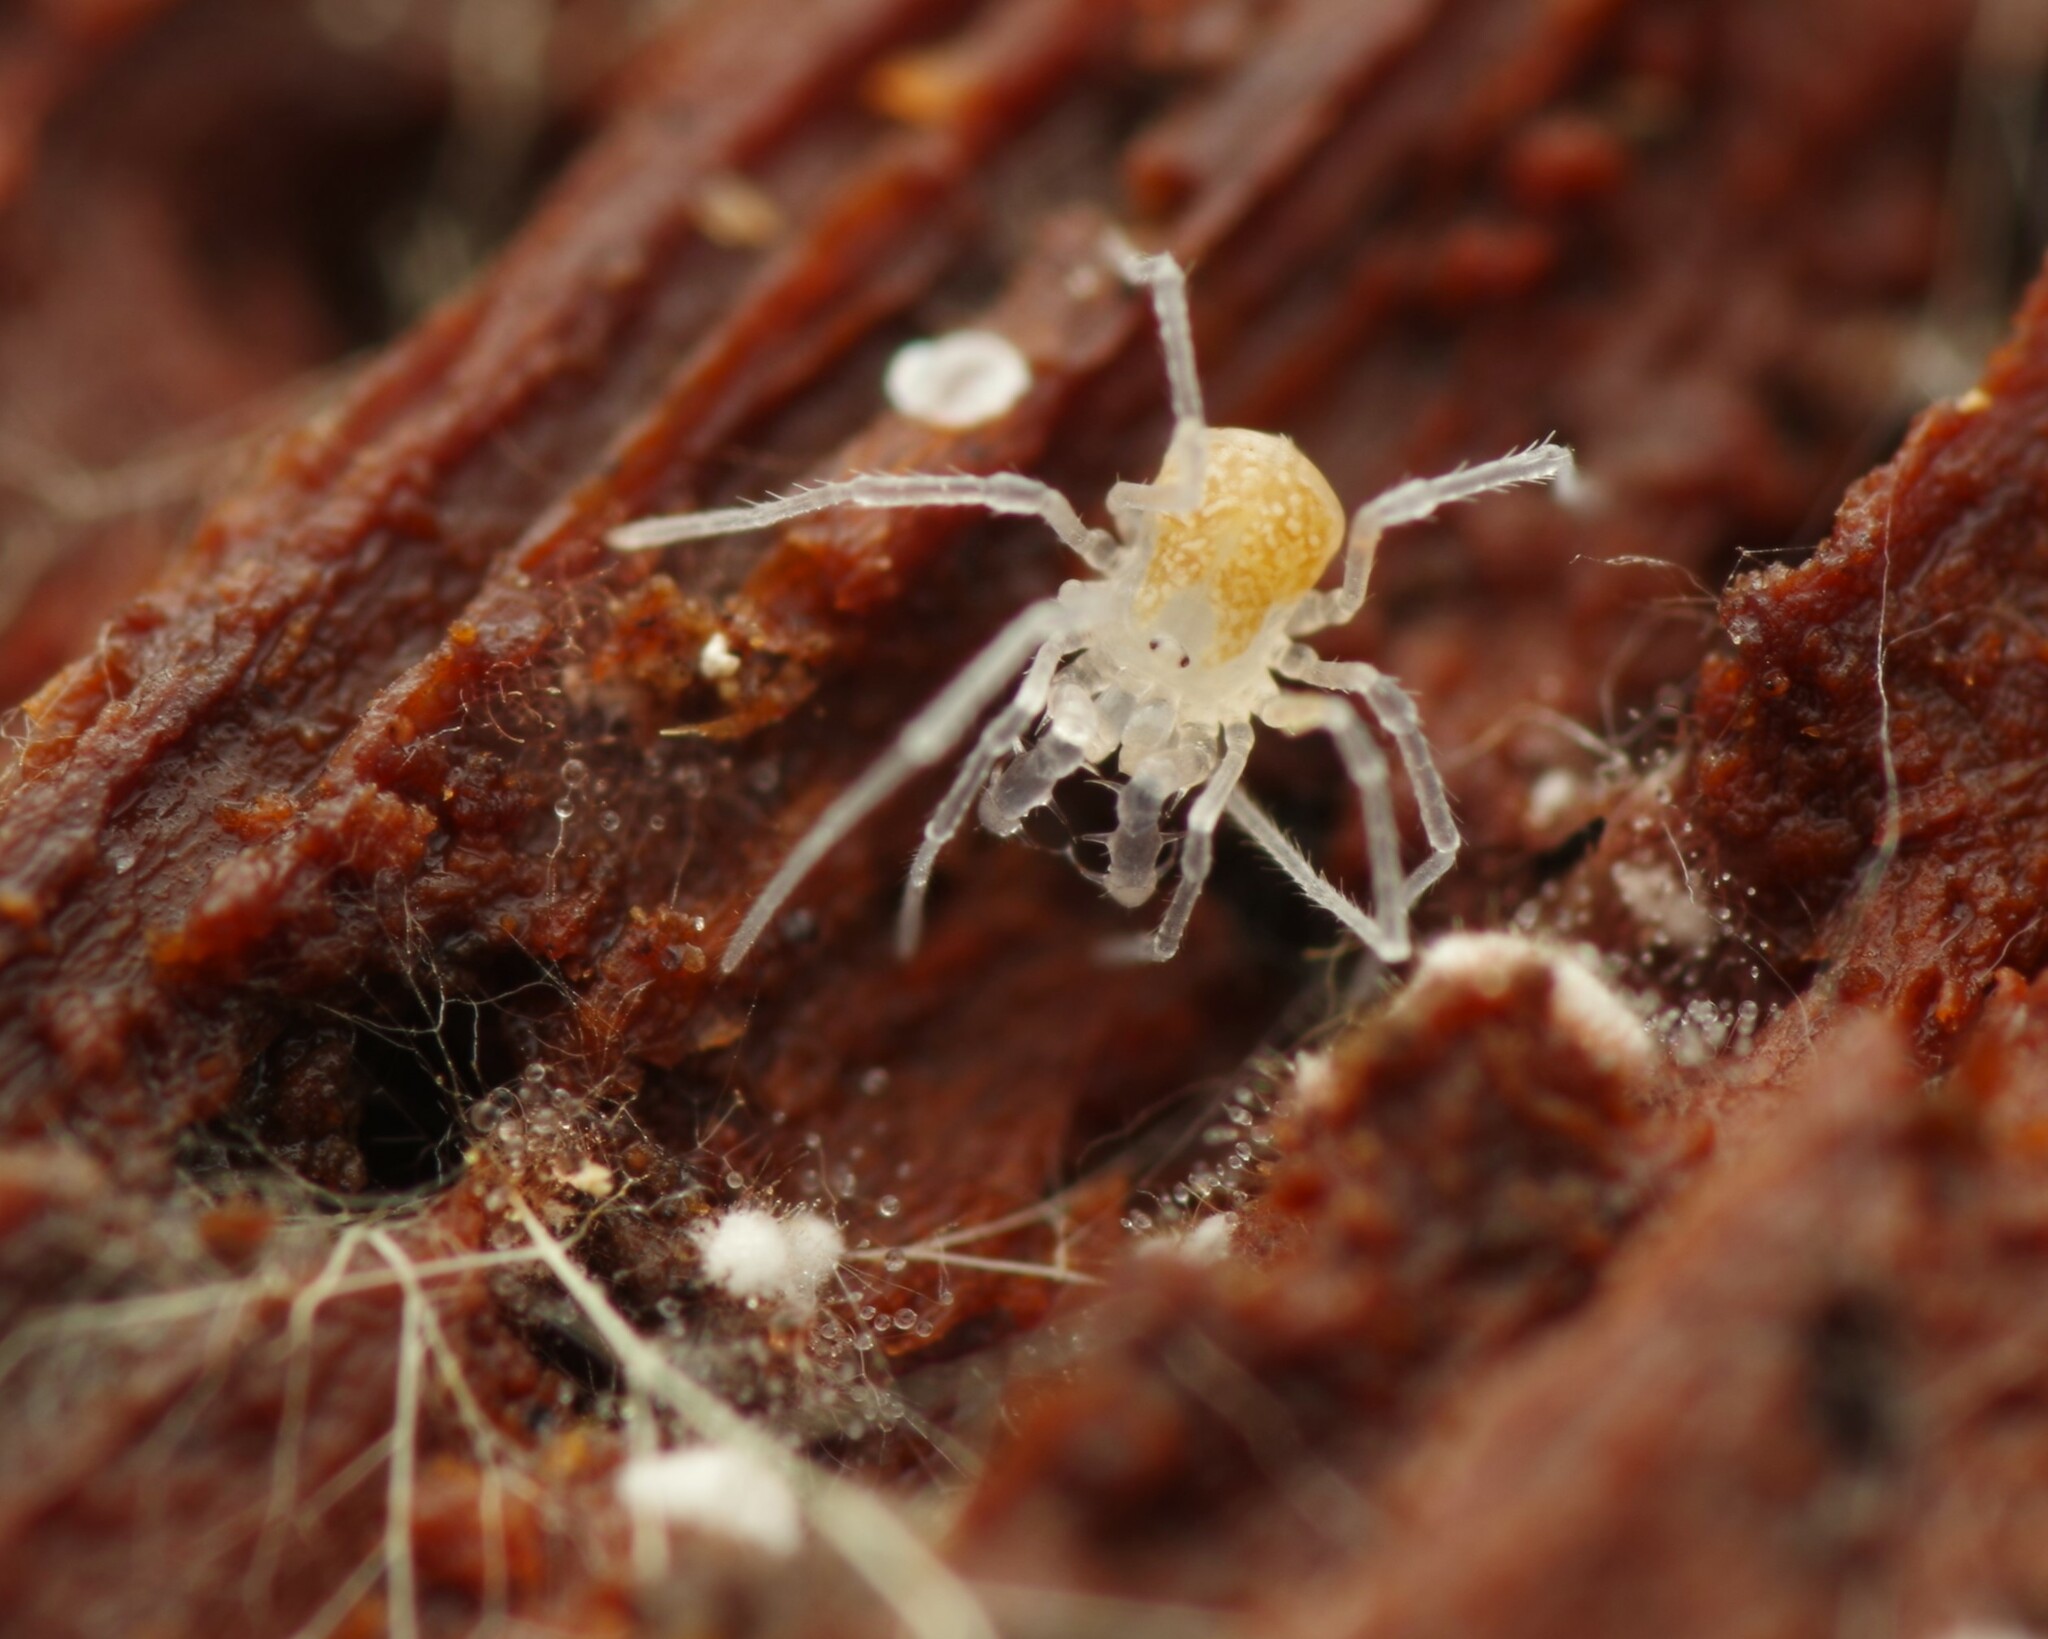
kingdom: Animalia
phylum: Arthropoda
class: Arachnida
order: Opiliones
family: Cladonychiidae
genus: Holoscotolemon
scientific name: Holoscotolemon querilhaci
